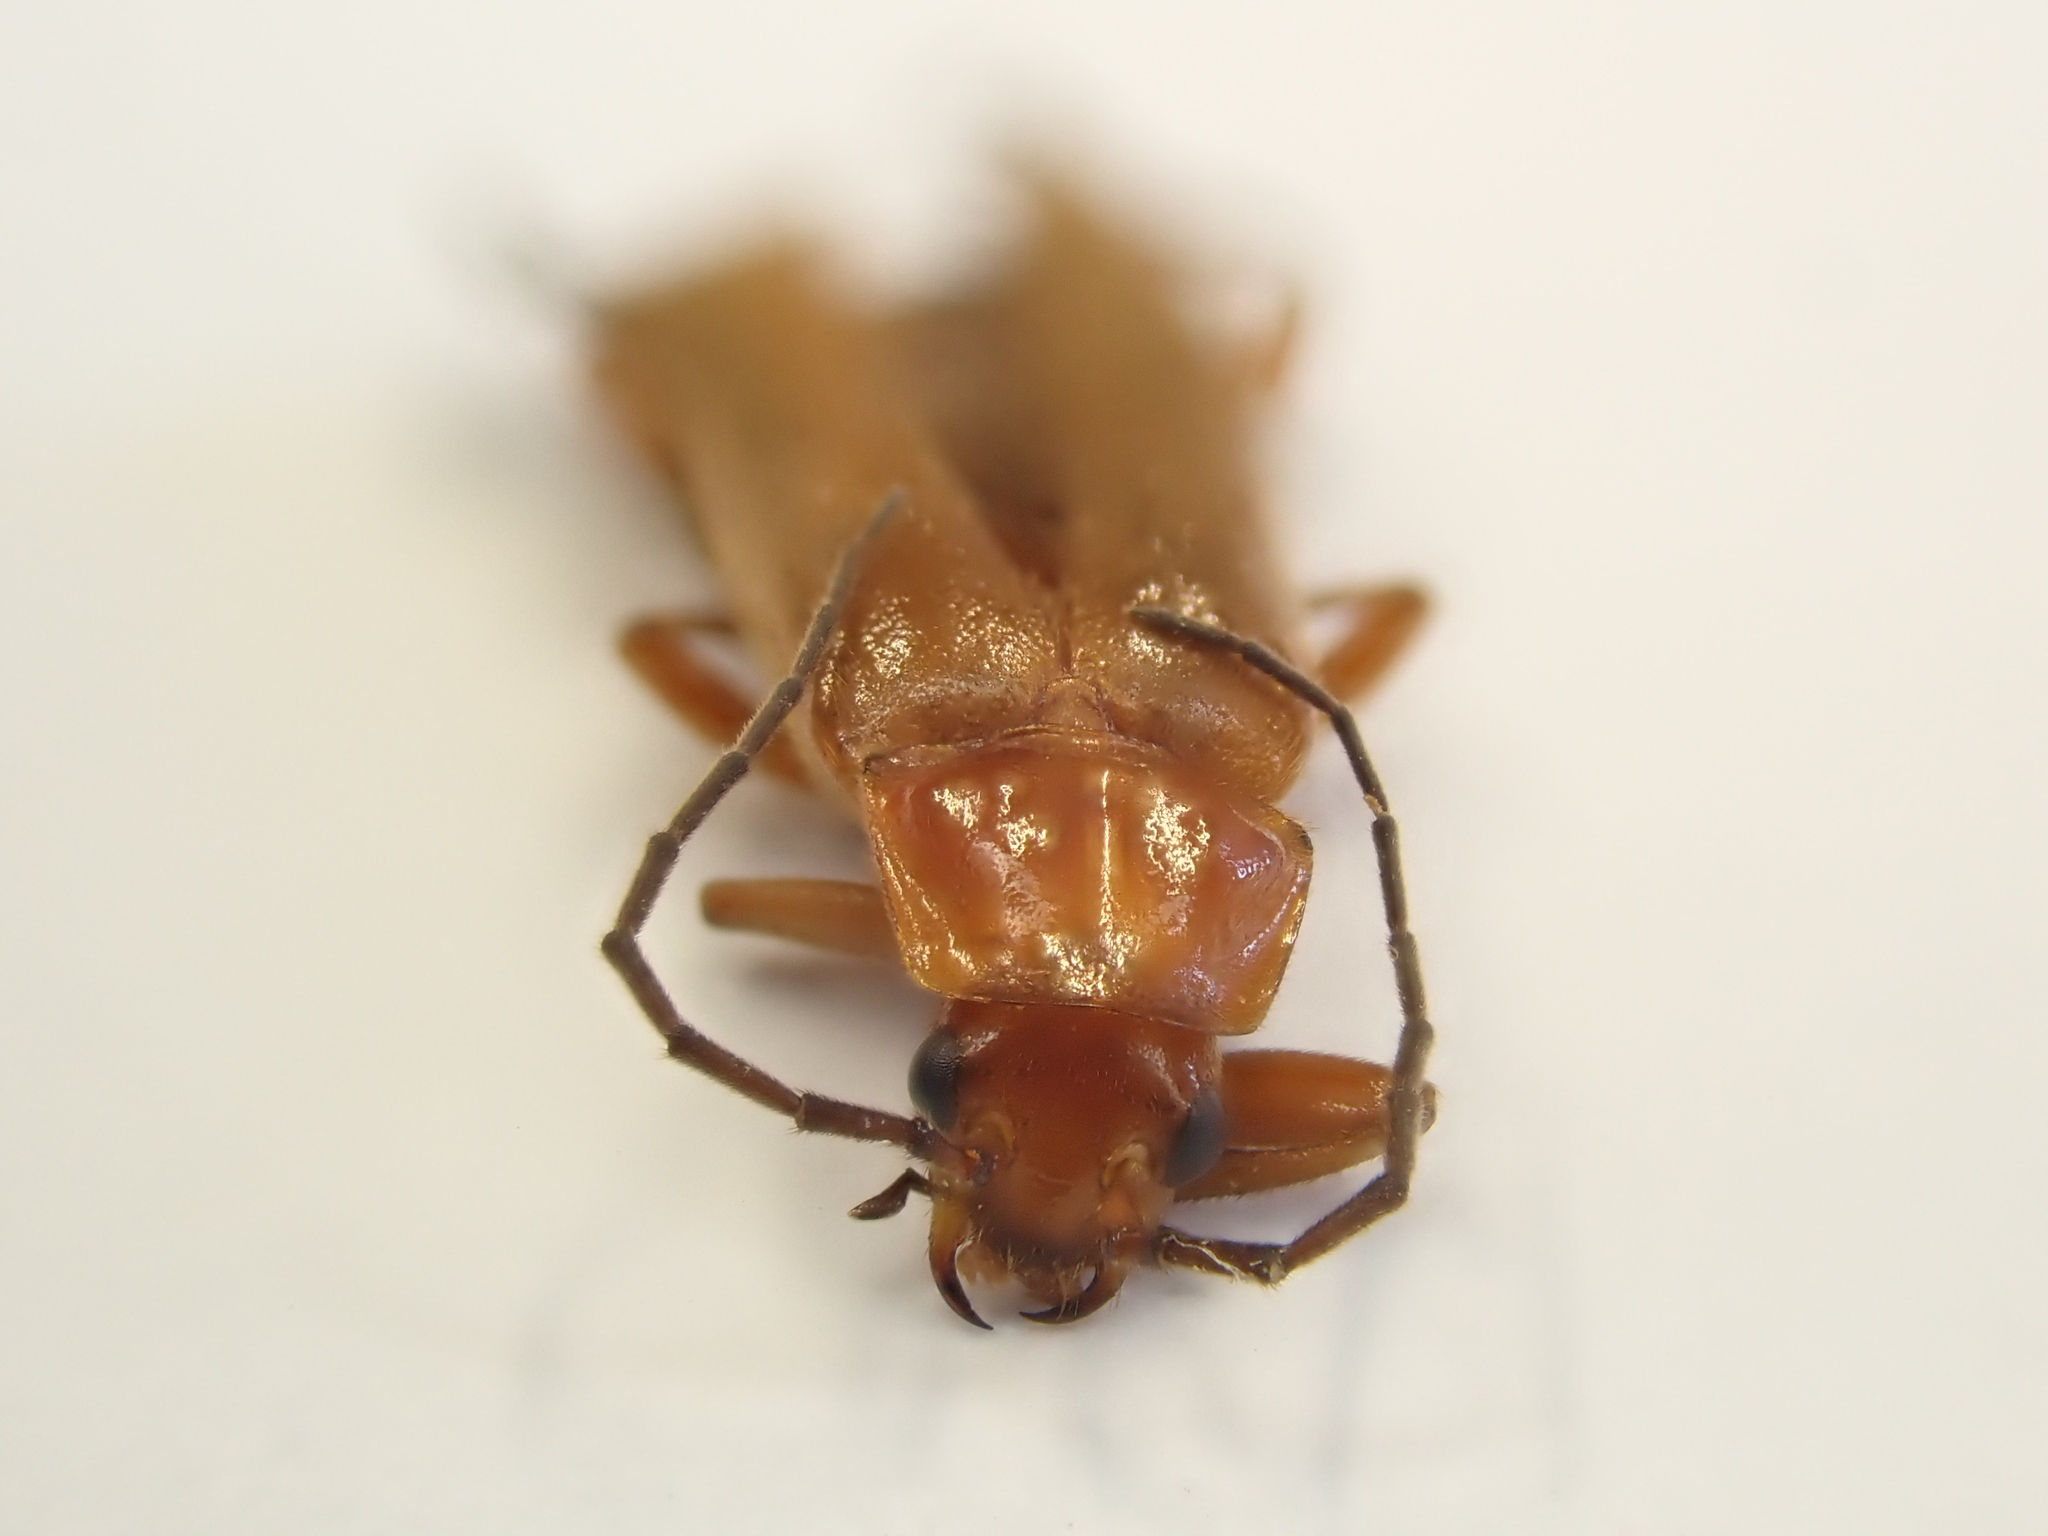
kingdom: Animalia
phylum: Arthropoda
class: Insecta
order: Coleoptera
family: Cantharidae
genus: Rhagonycha
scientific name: Rhagonycha fulva
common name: Common red soldier beetle
